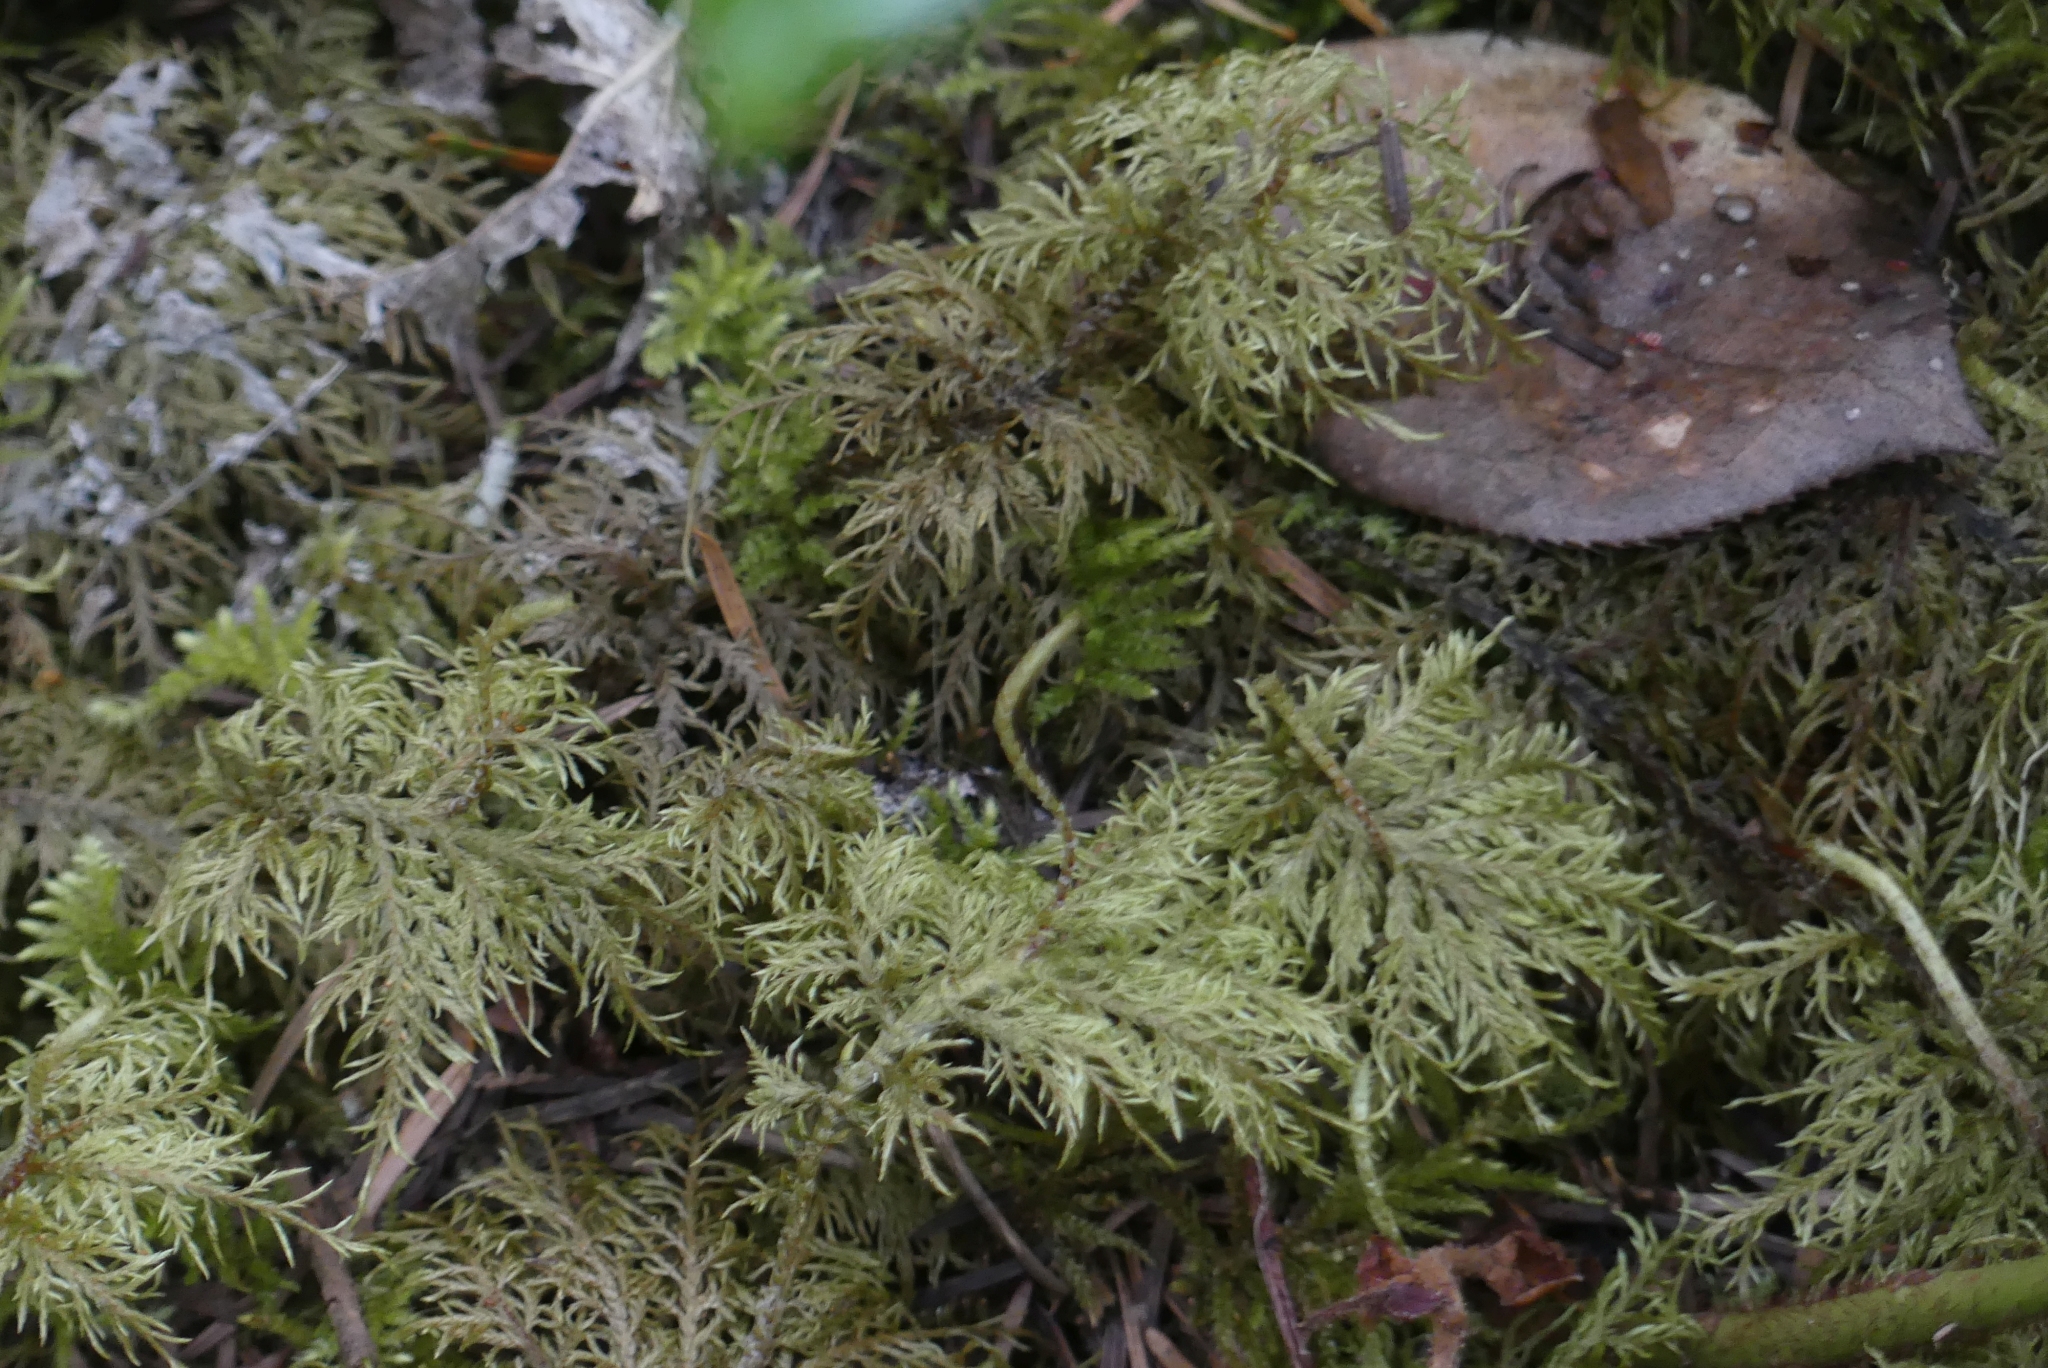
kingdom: Plantae
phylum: Bryophyta
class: Bryopsida
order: Hypnales
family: Hylocomiaceae
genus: Hylocomium
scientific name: Hylocomium splendens
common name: Stairstep moss
